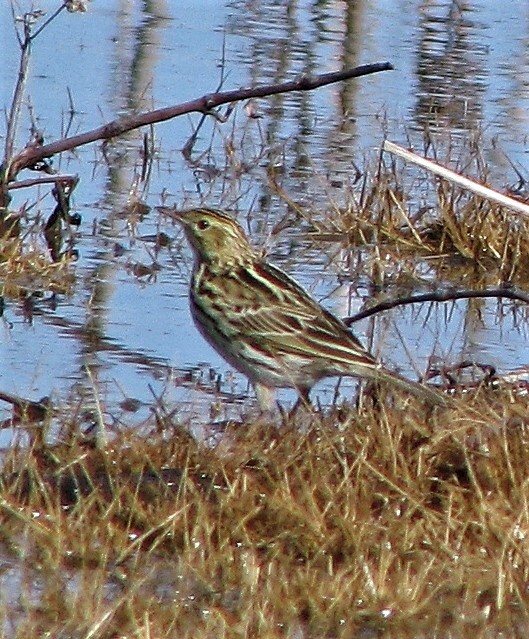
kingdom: Animalia
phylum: Chordata
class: Aves
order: Passeriformes
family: Motacillidae
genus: Anthus
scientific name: Anthus correndera
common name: Correndera pipit
